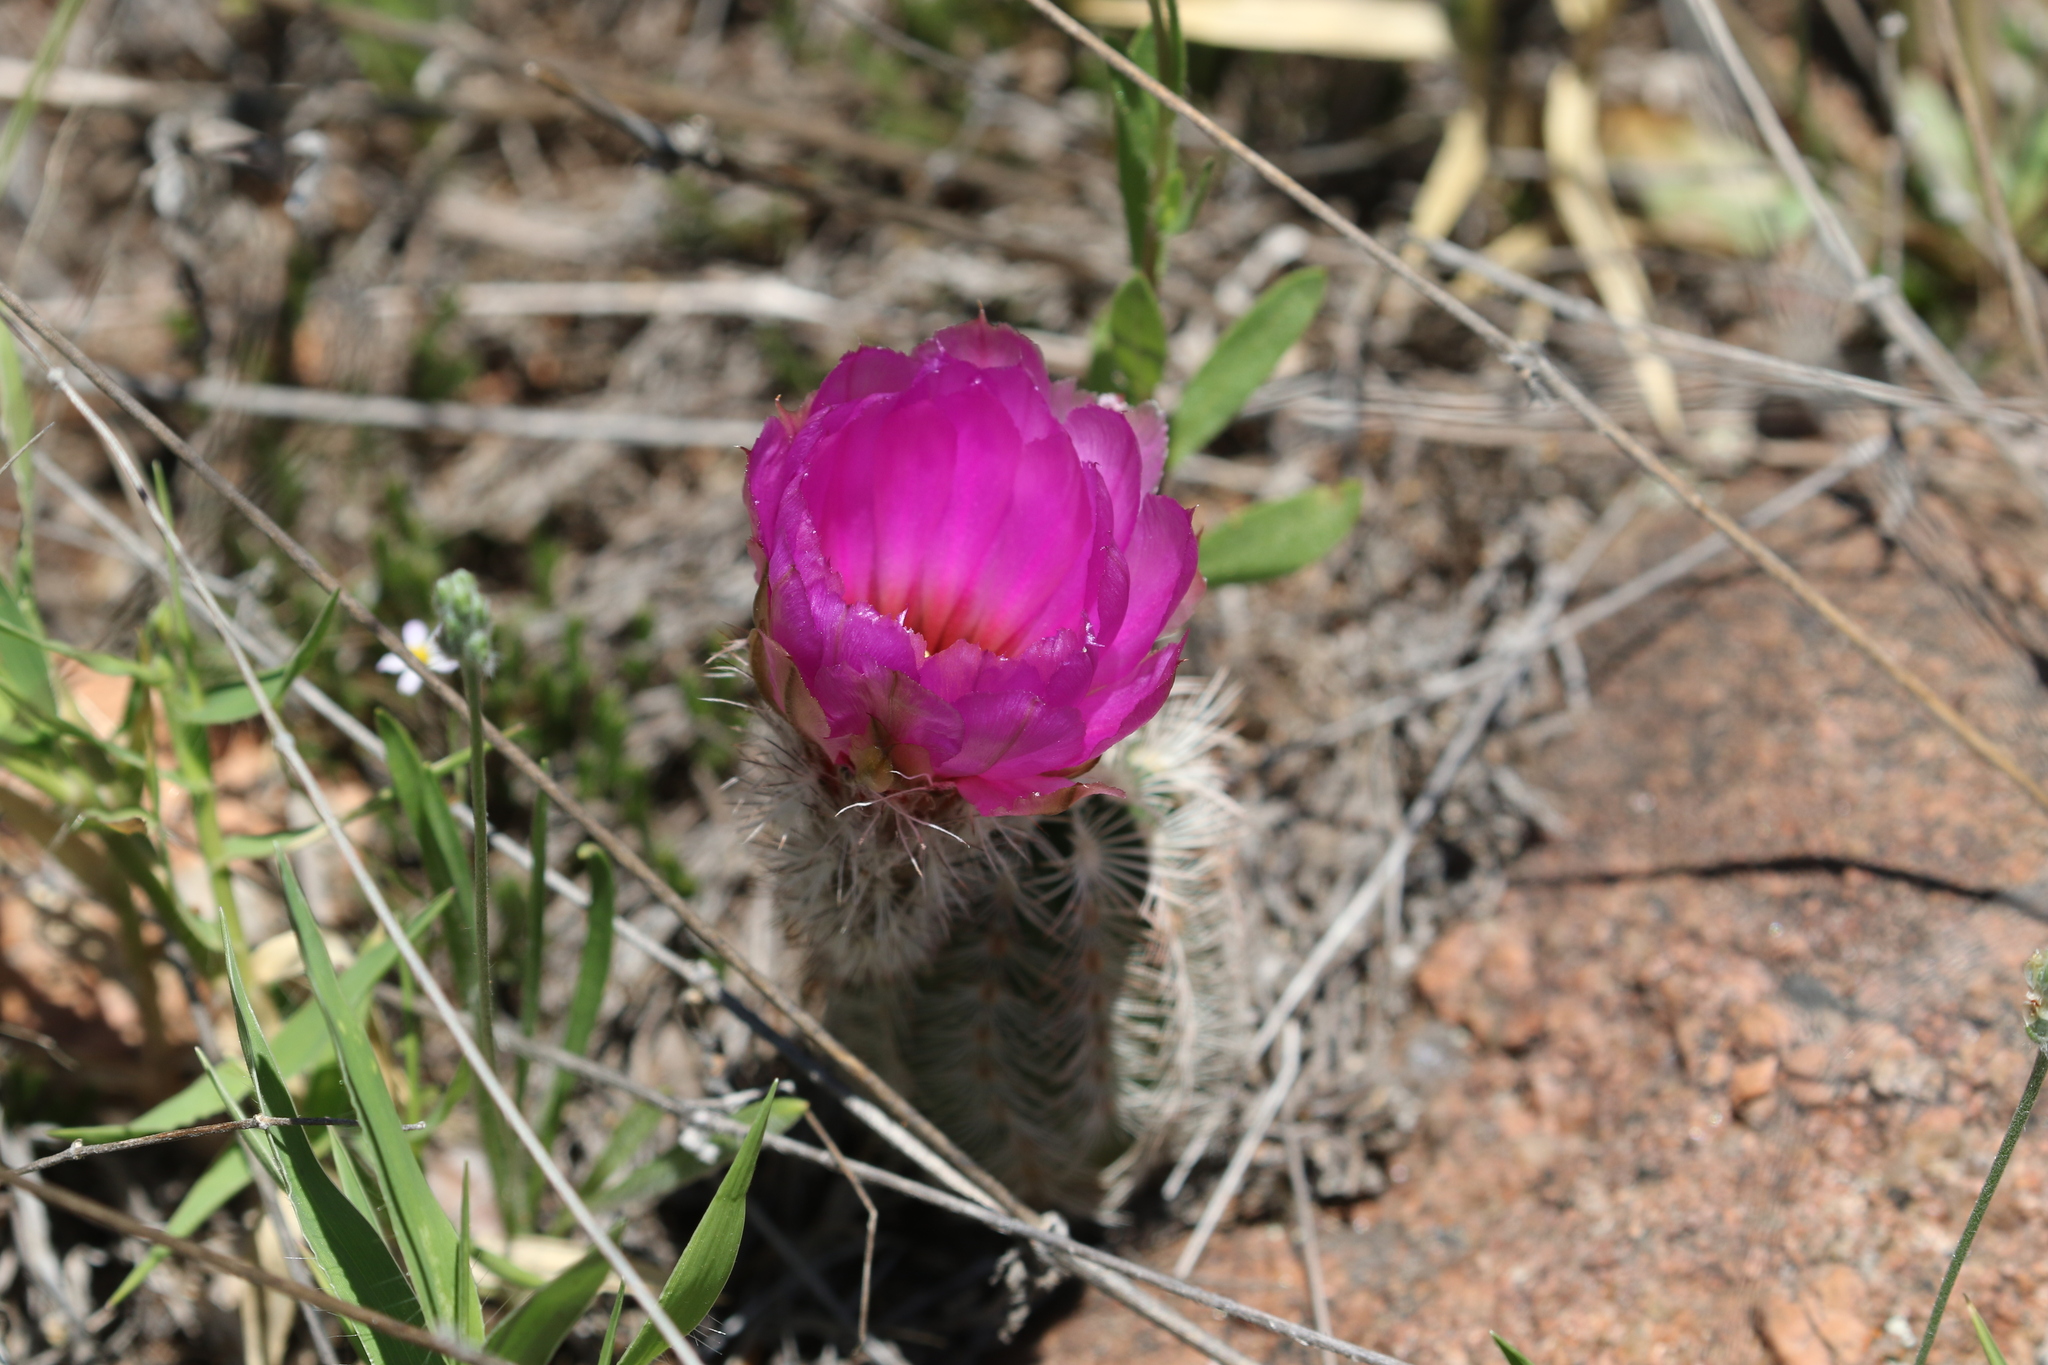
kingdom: Plantae
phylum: Tracheophyta
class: Magnoliopsida
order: Caryophyllales
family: Cactaceae
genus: Echinocereus
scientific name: Echinocereus reichenbachii
